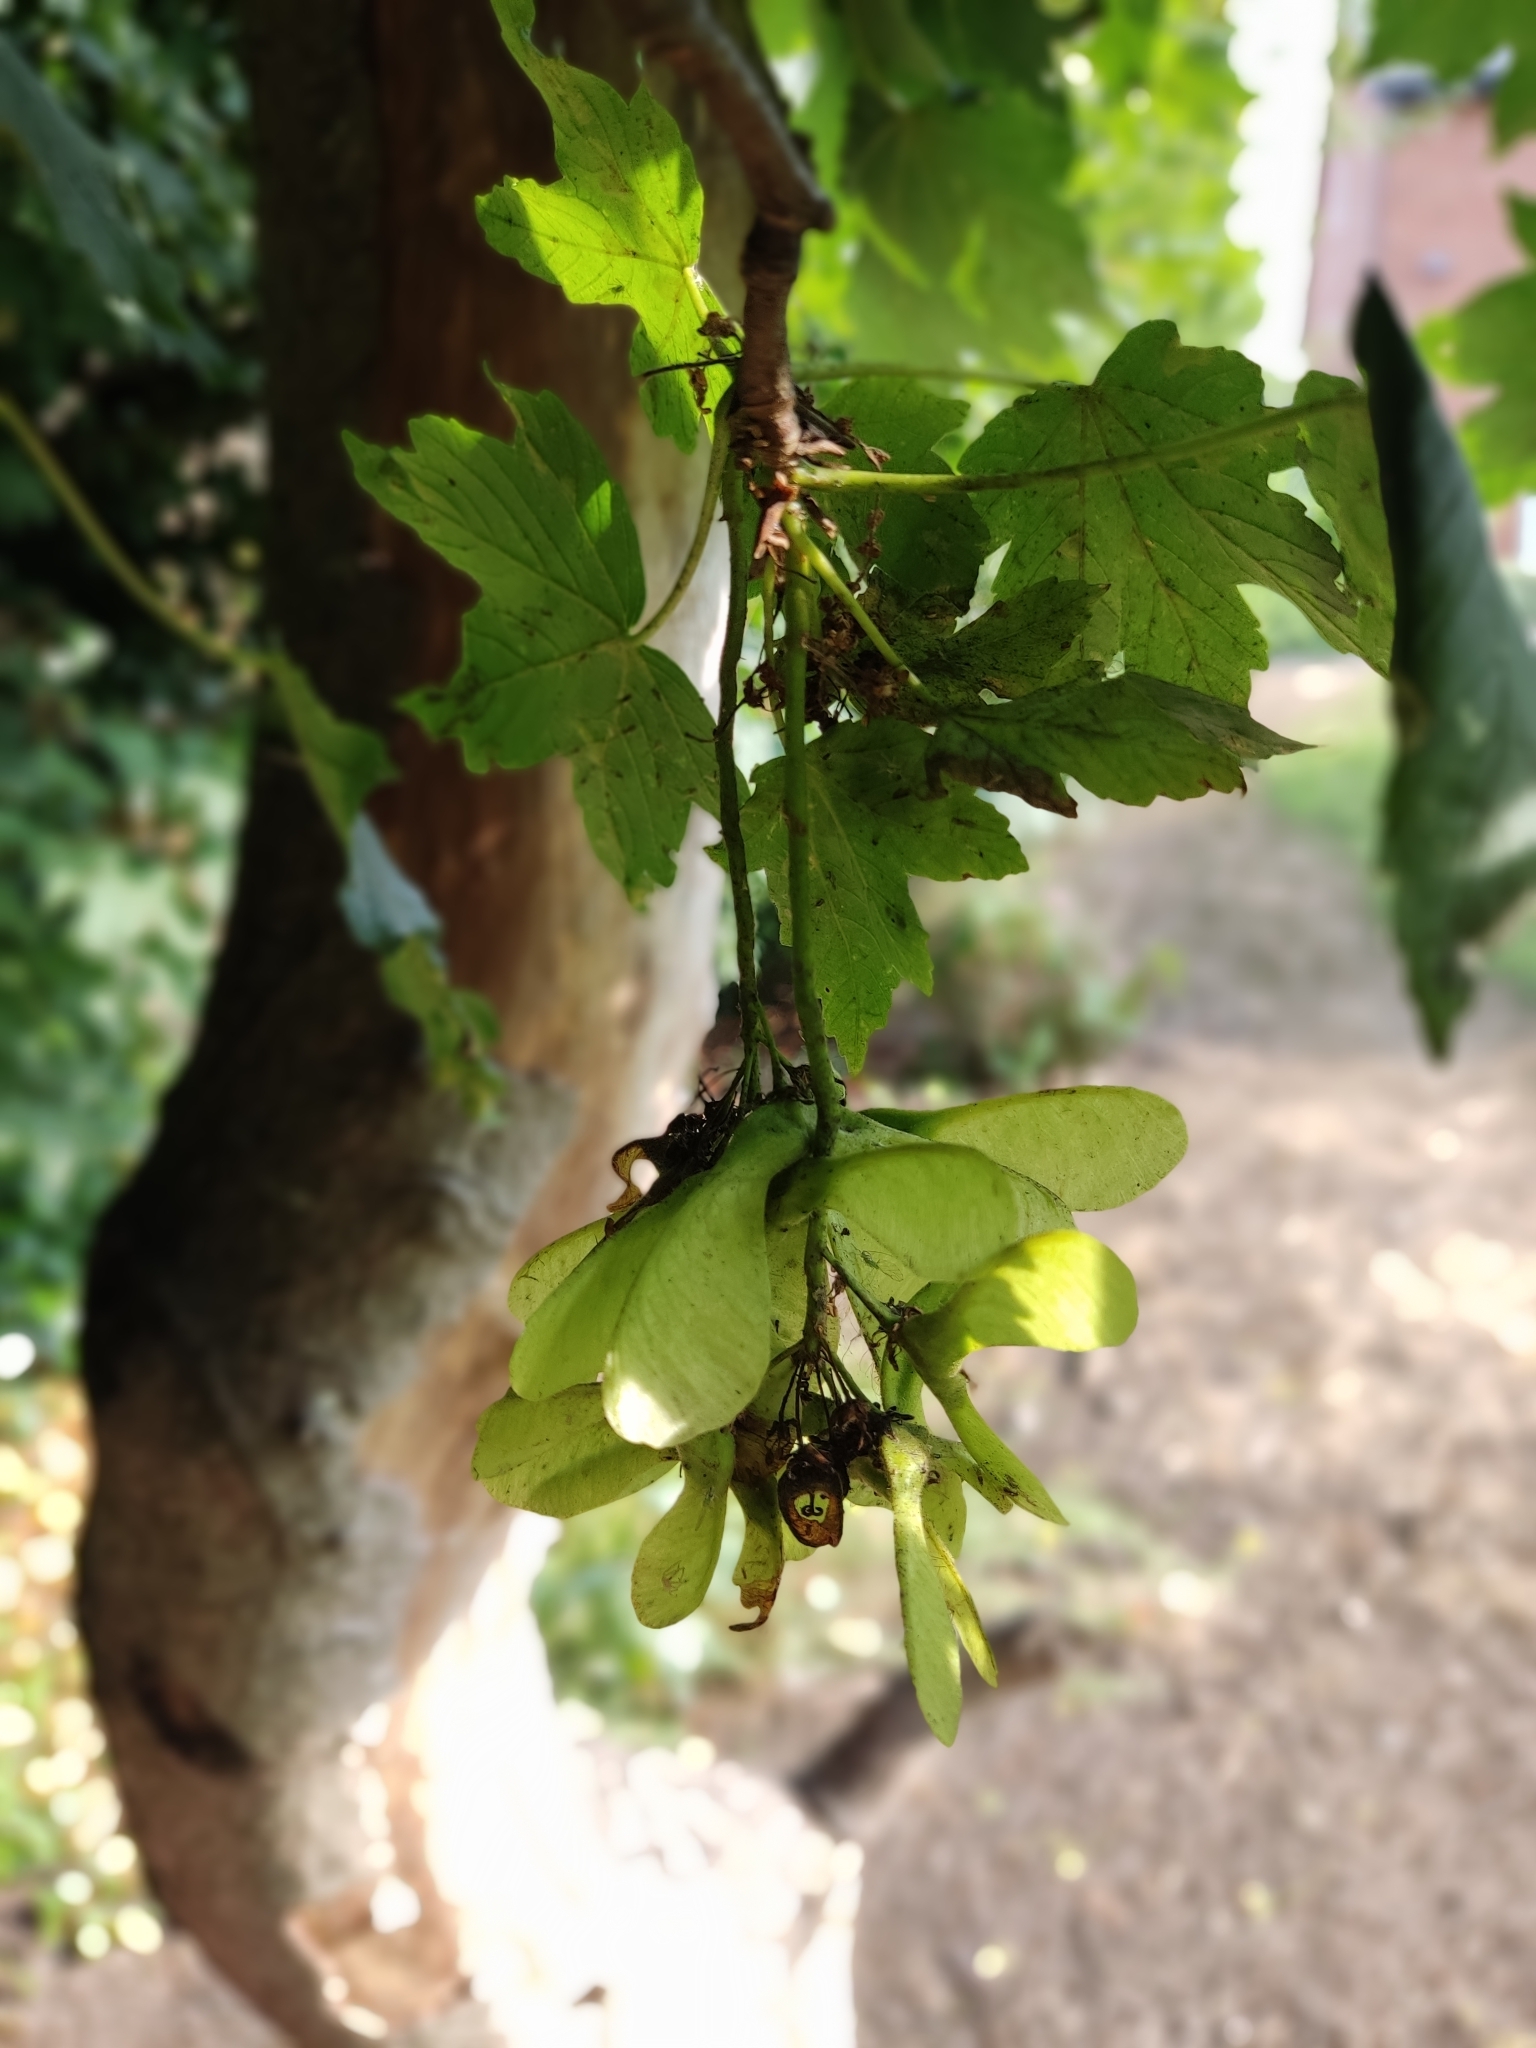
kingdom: Plantae
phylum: Tracheophyta
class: Magnoliopsida
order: Sapindales
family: Sapindaceae
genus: Acer
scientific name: Acer pseudoplatanus
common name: Sycamore
